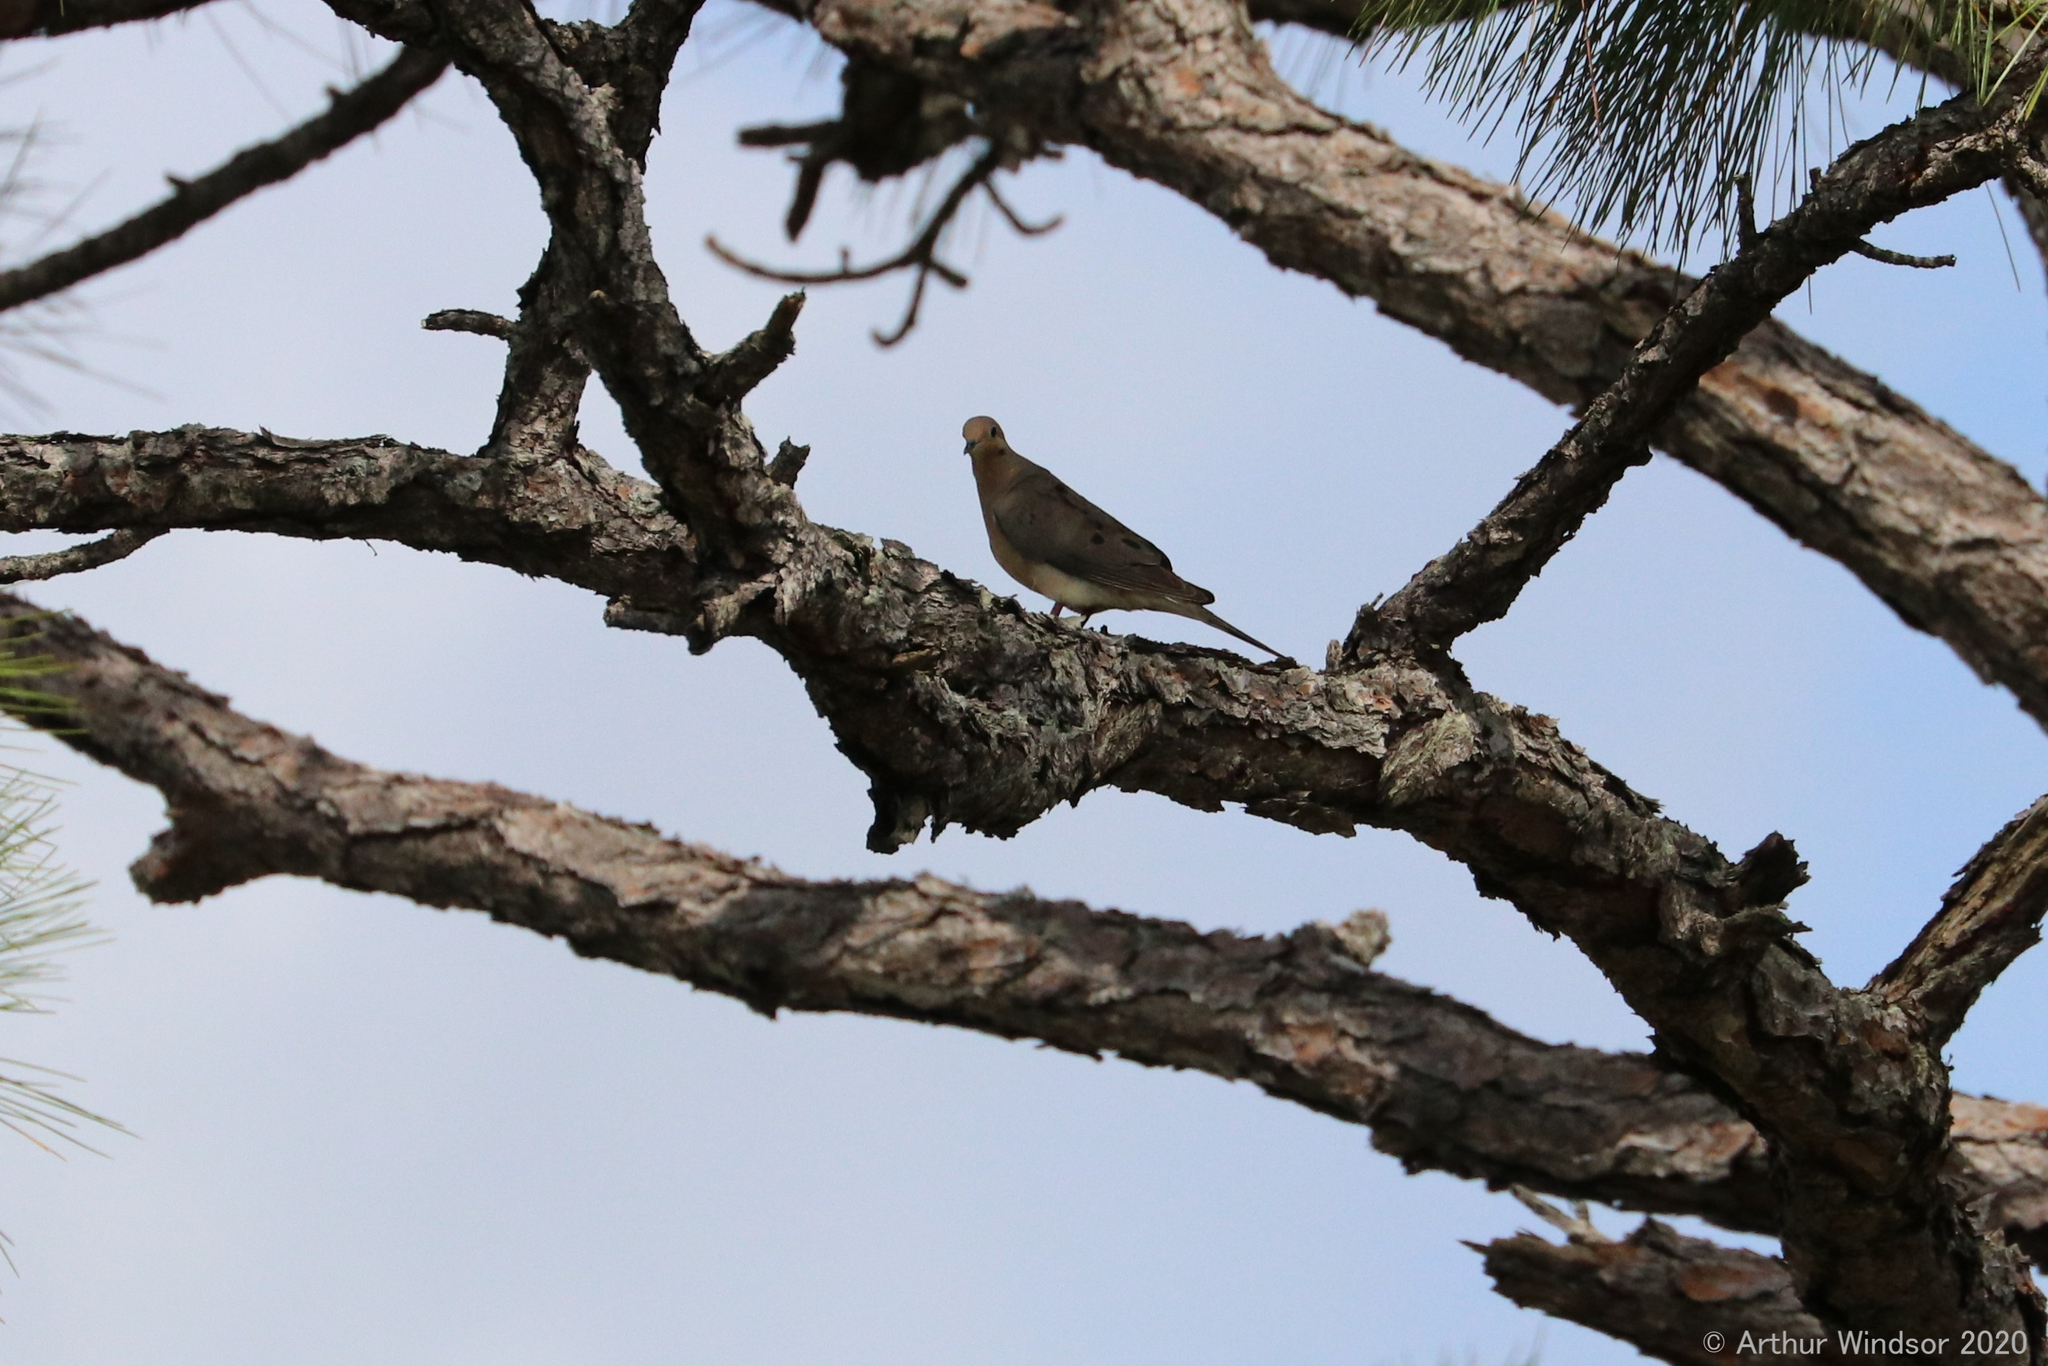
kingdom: Animalia
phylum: Chordata
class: Aves
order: Columbiformes
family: Columbidae
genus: Zenaida
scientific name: Zenaida macroura
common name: Mourning dove
